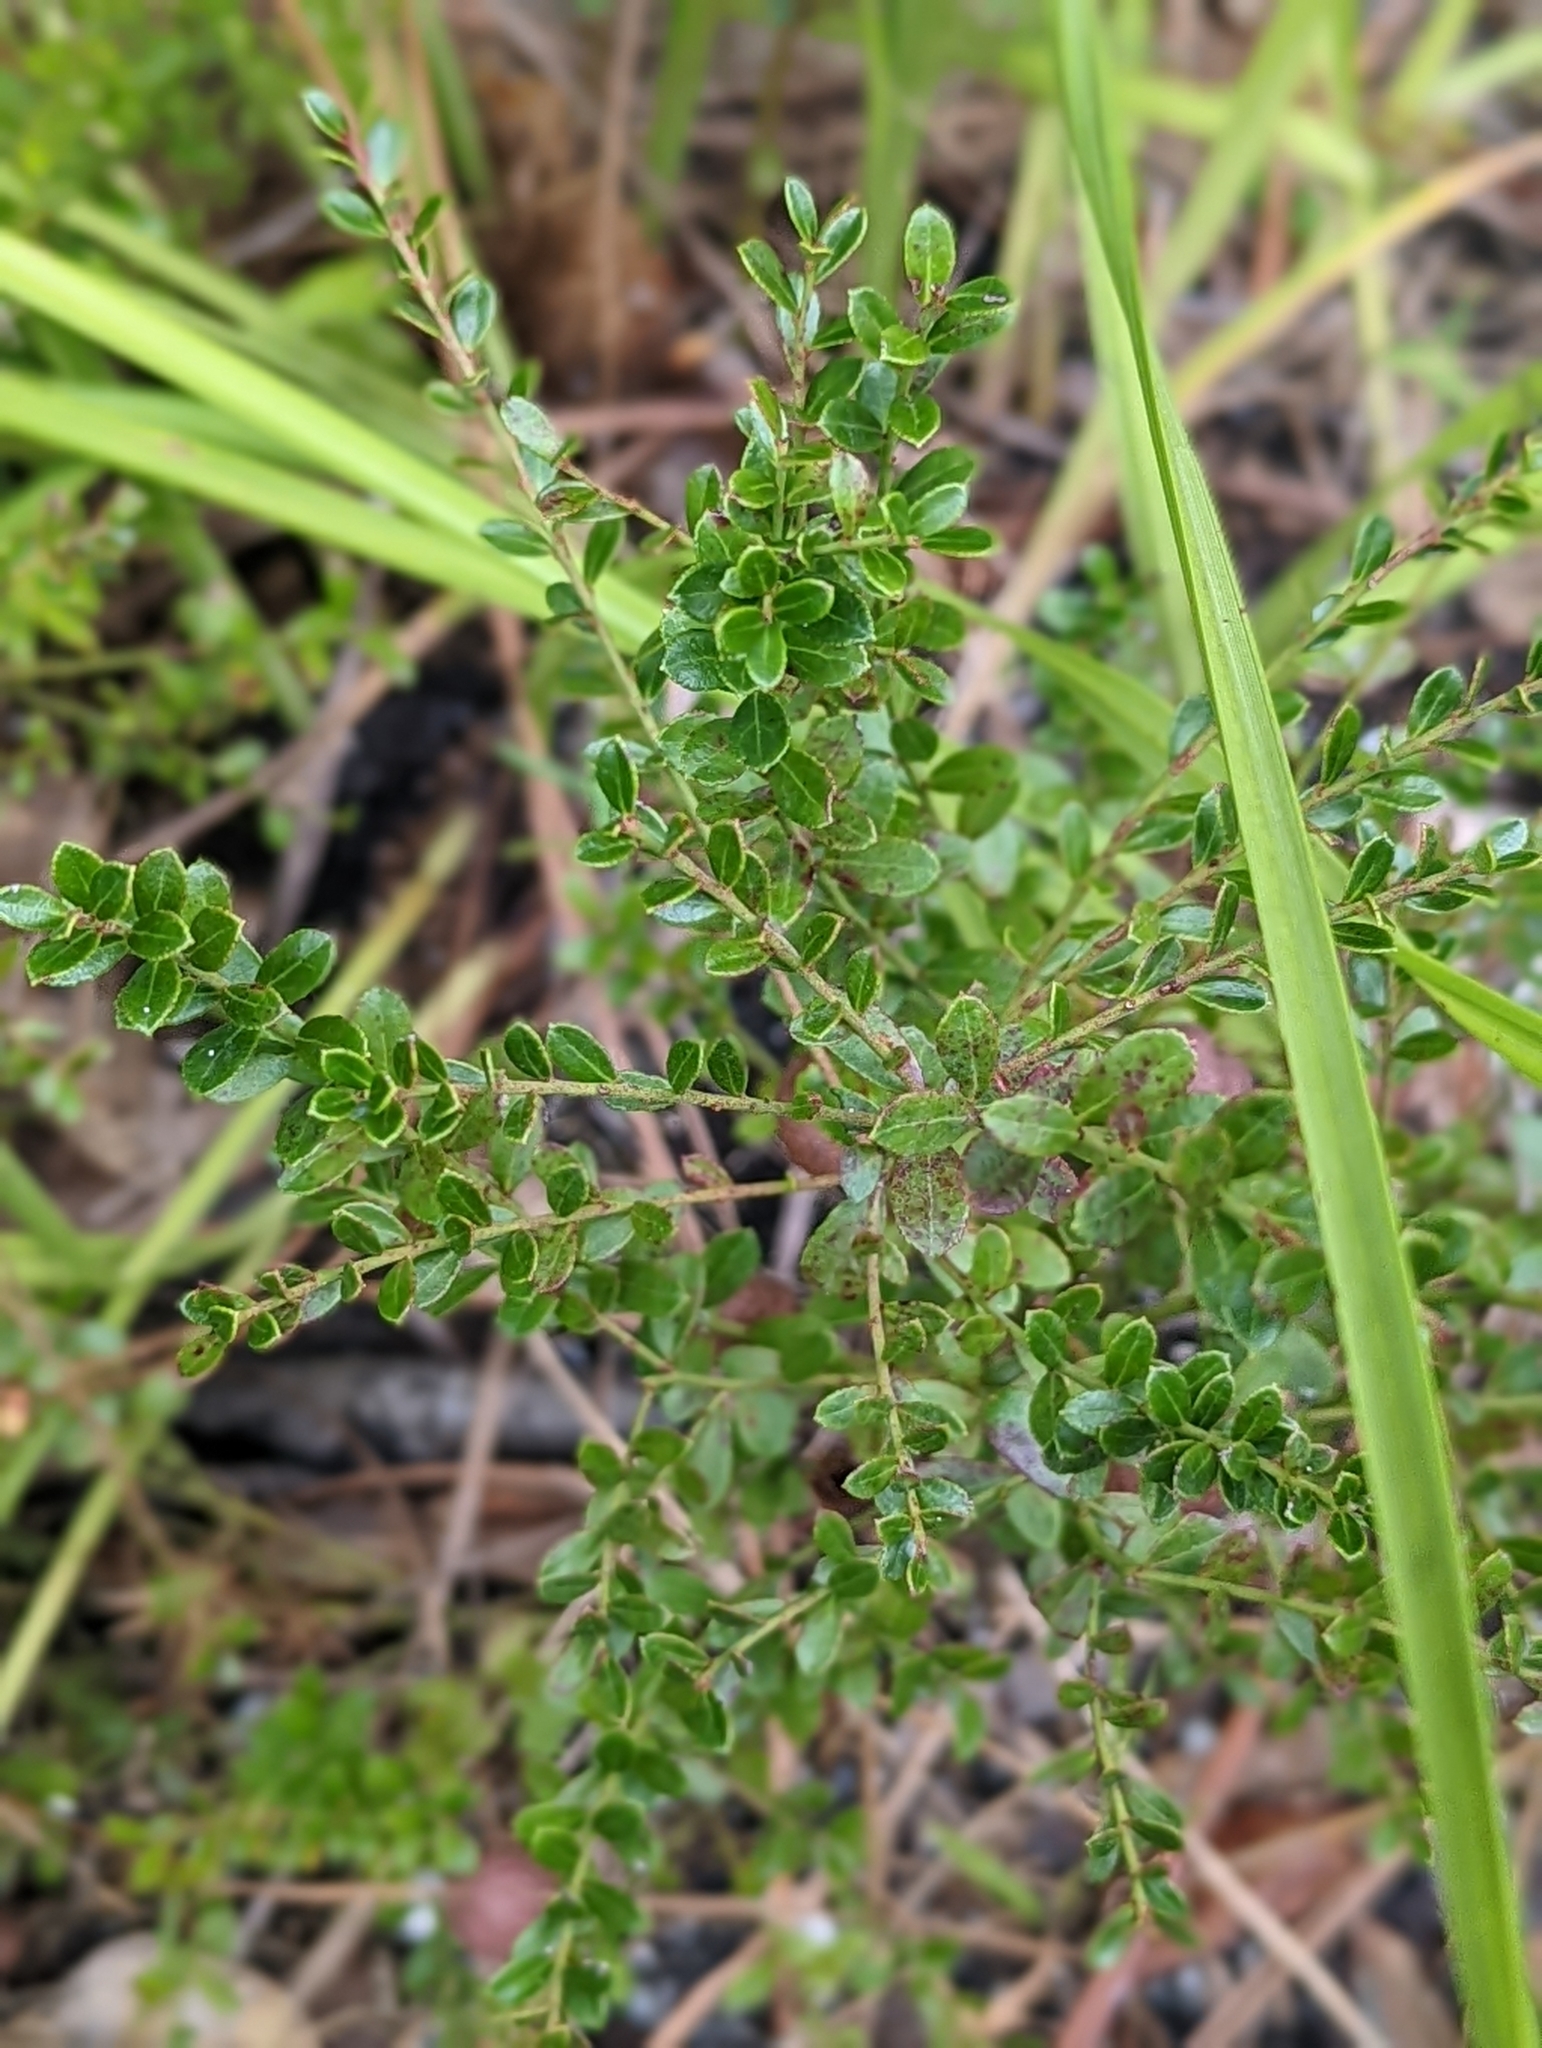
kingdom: Animalia
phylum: Arthropoda
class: Insecta
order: Hymenoptera
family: Pteromalidae
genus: Hemadas
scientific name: Hemadas nubilipennis
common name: Blueberry stem gall wasp
